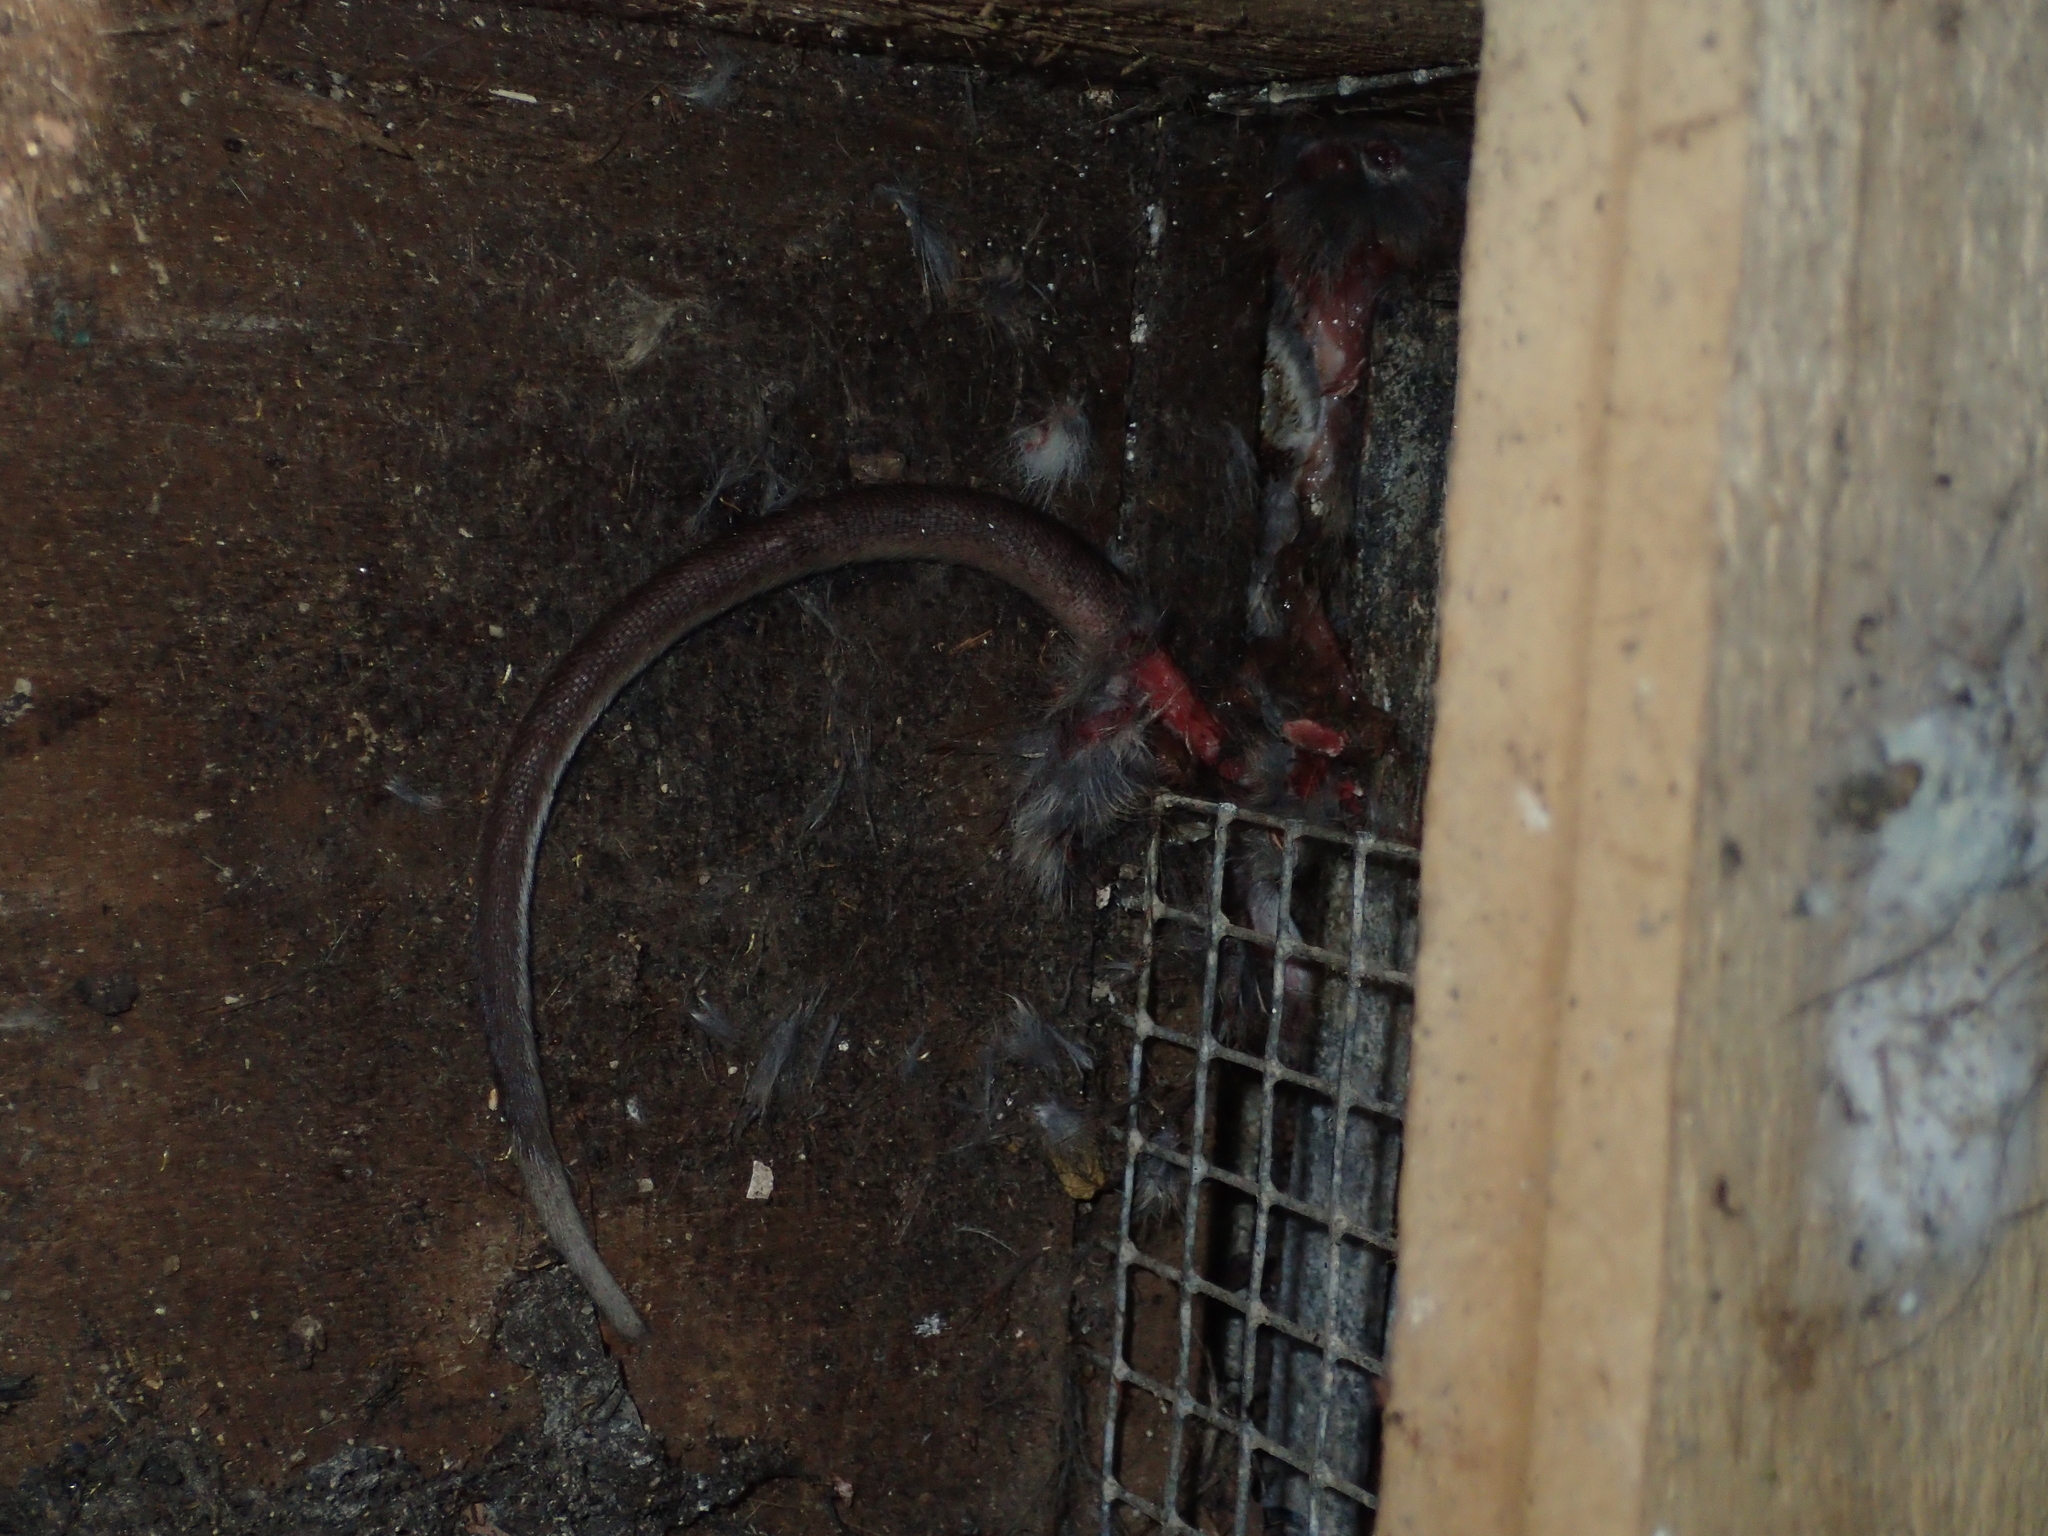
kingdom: Animalia
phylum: Chordata
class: Mammalia
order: Rodentia
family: Muridae
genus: Rattus
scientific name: Rattus norvegicus
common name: Brown rat
